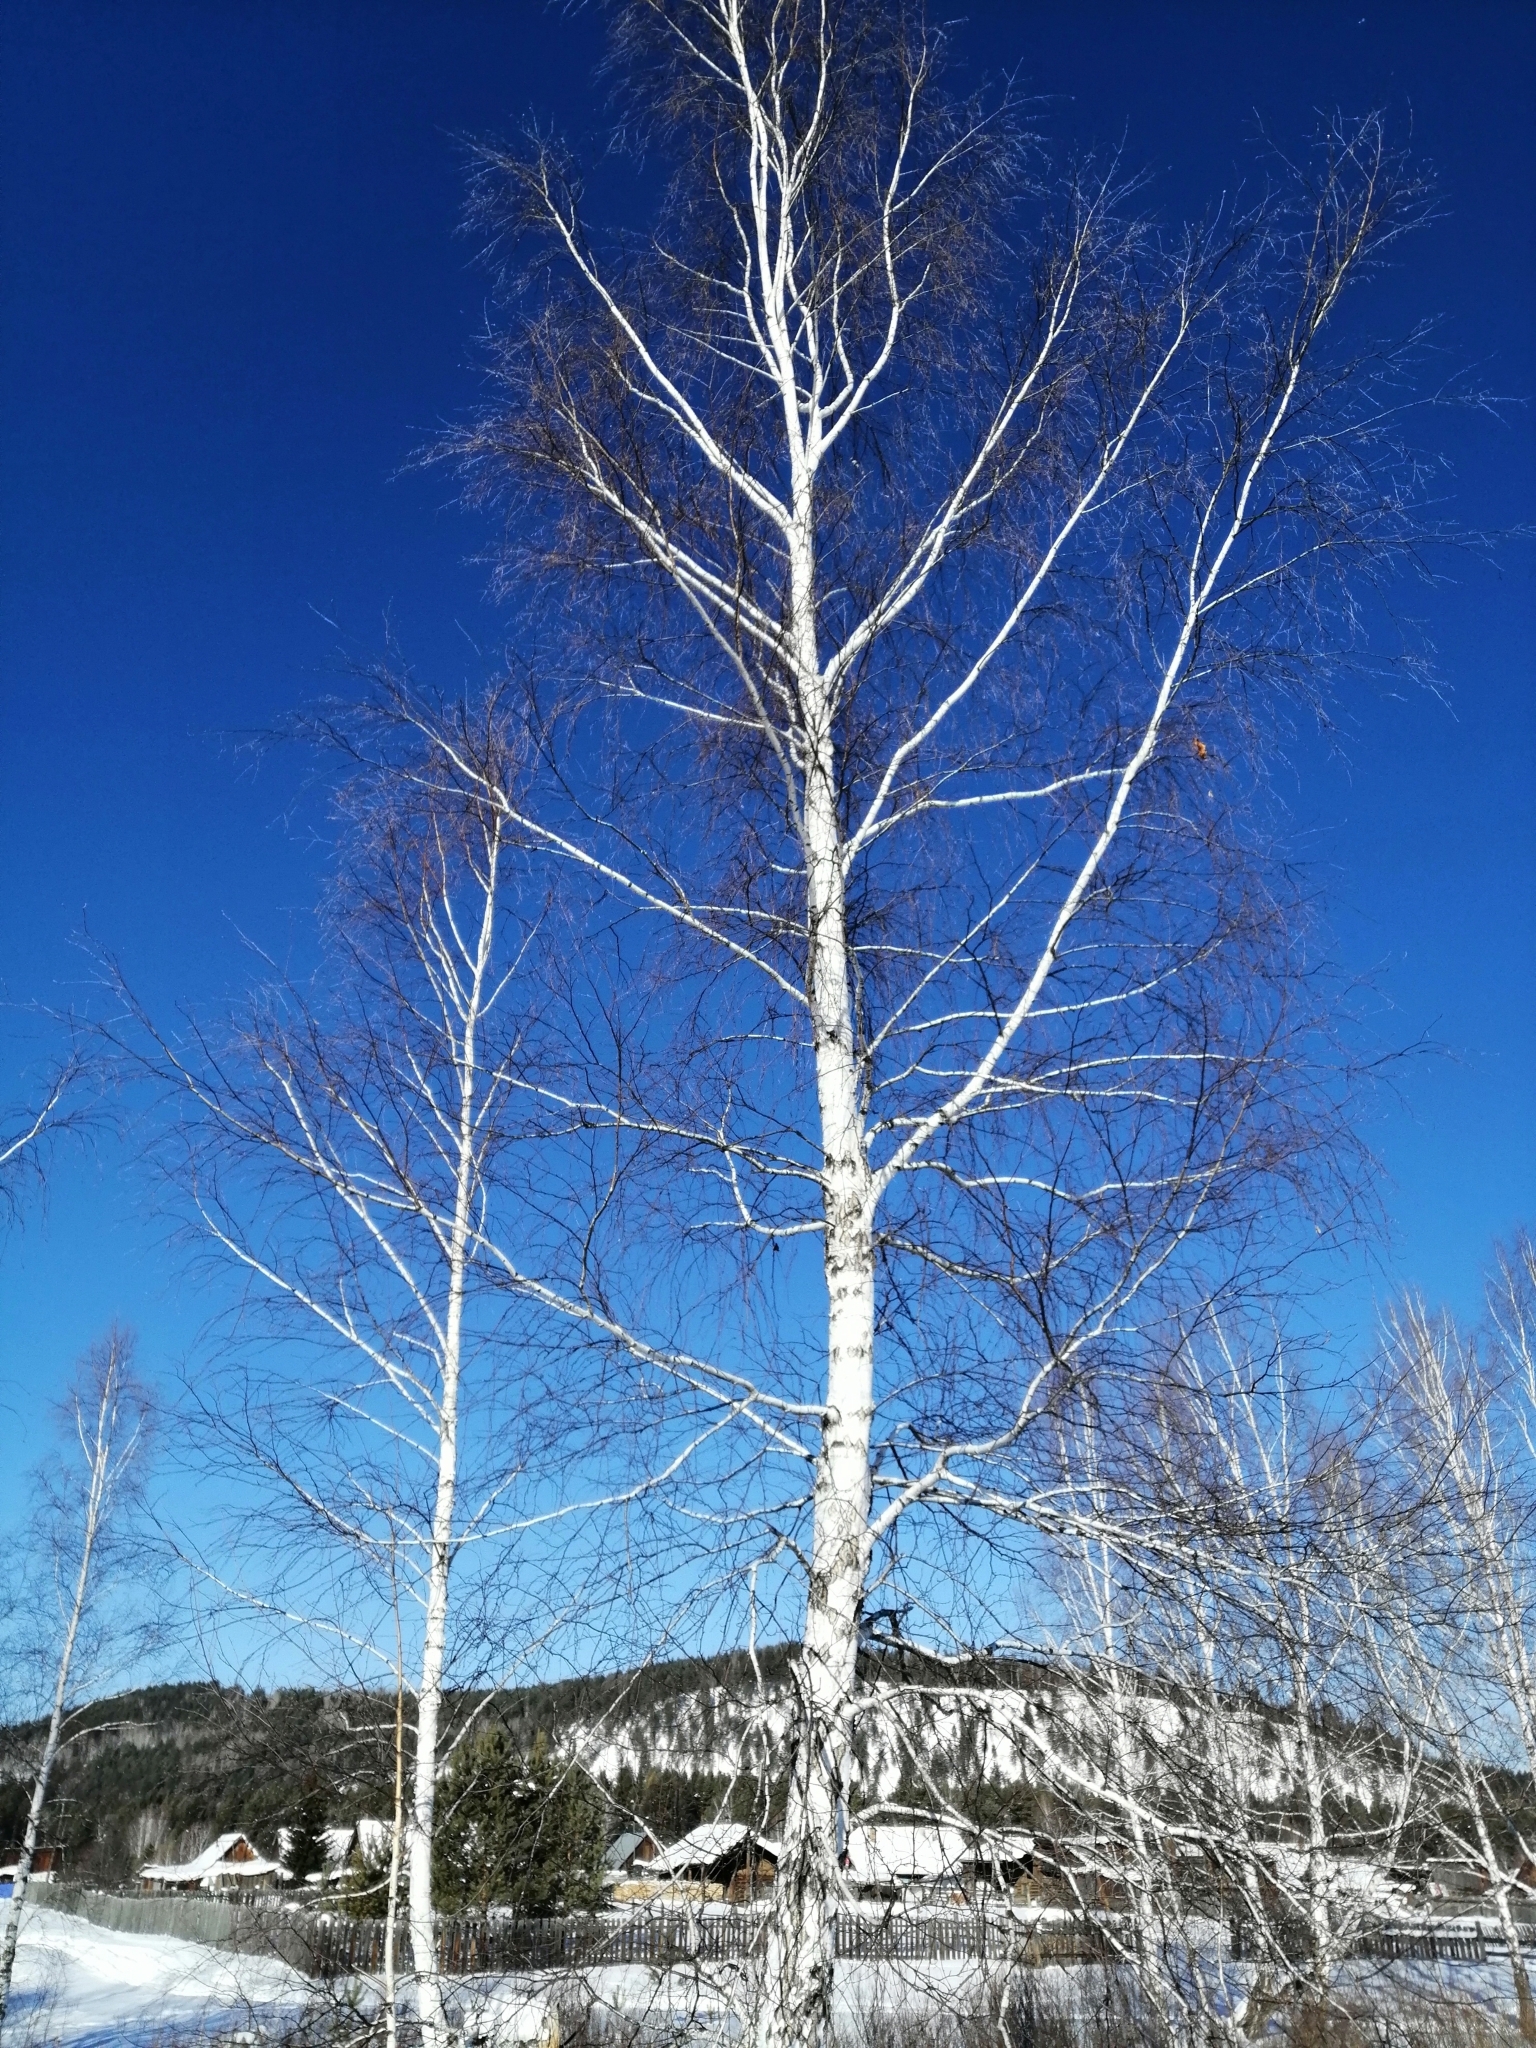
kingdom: Plantae
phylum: Tracheophyta
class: Magnoliopsida
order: Fagales
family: Betulaceae
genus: Betula
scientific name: Betula pendula
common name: Silver birch
